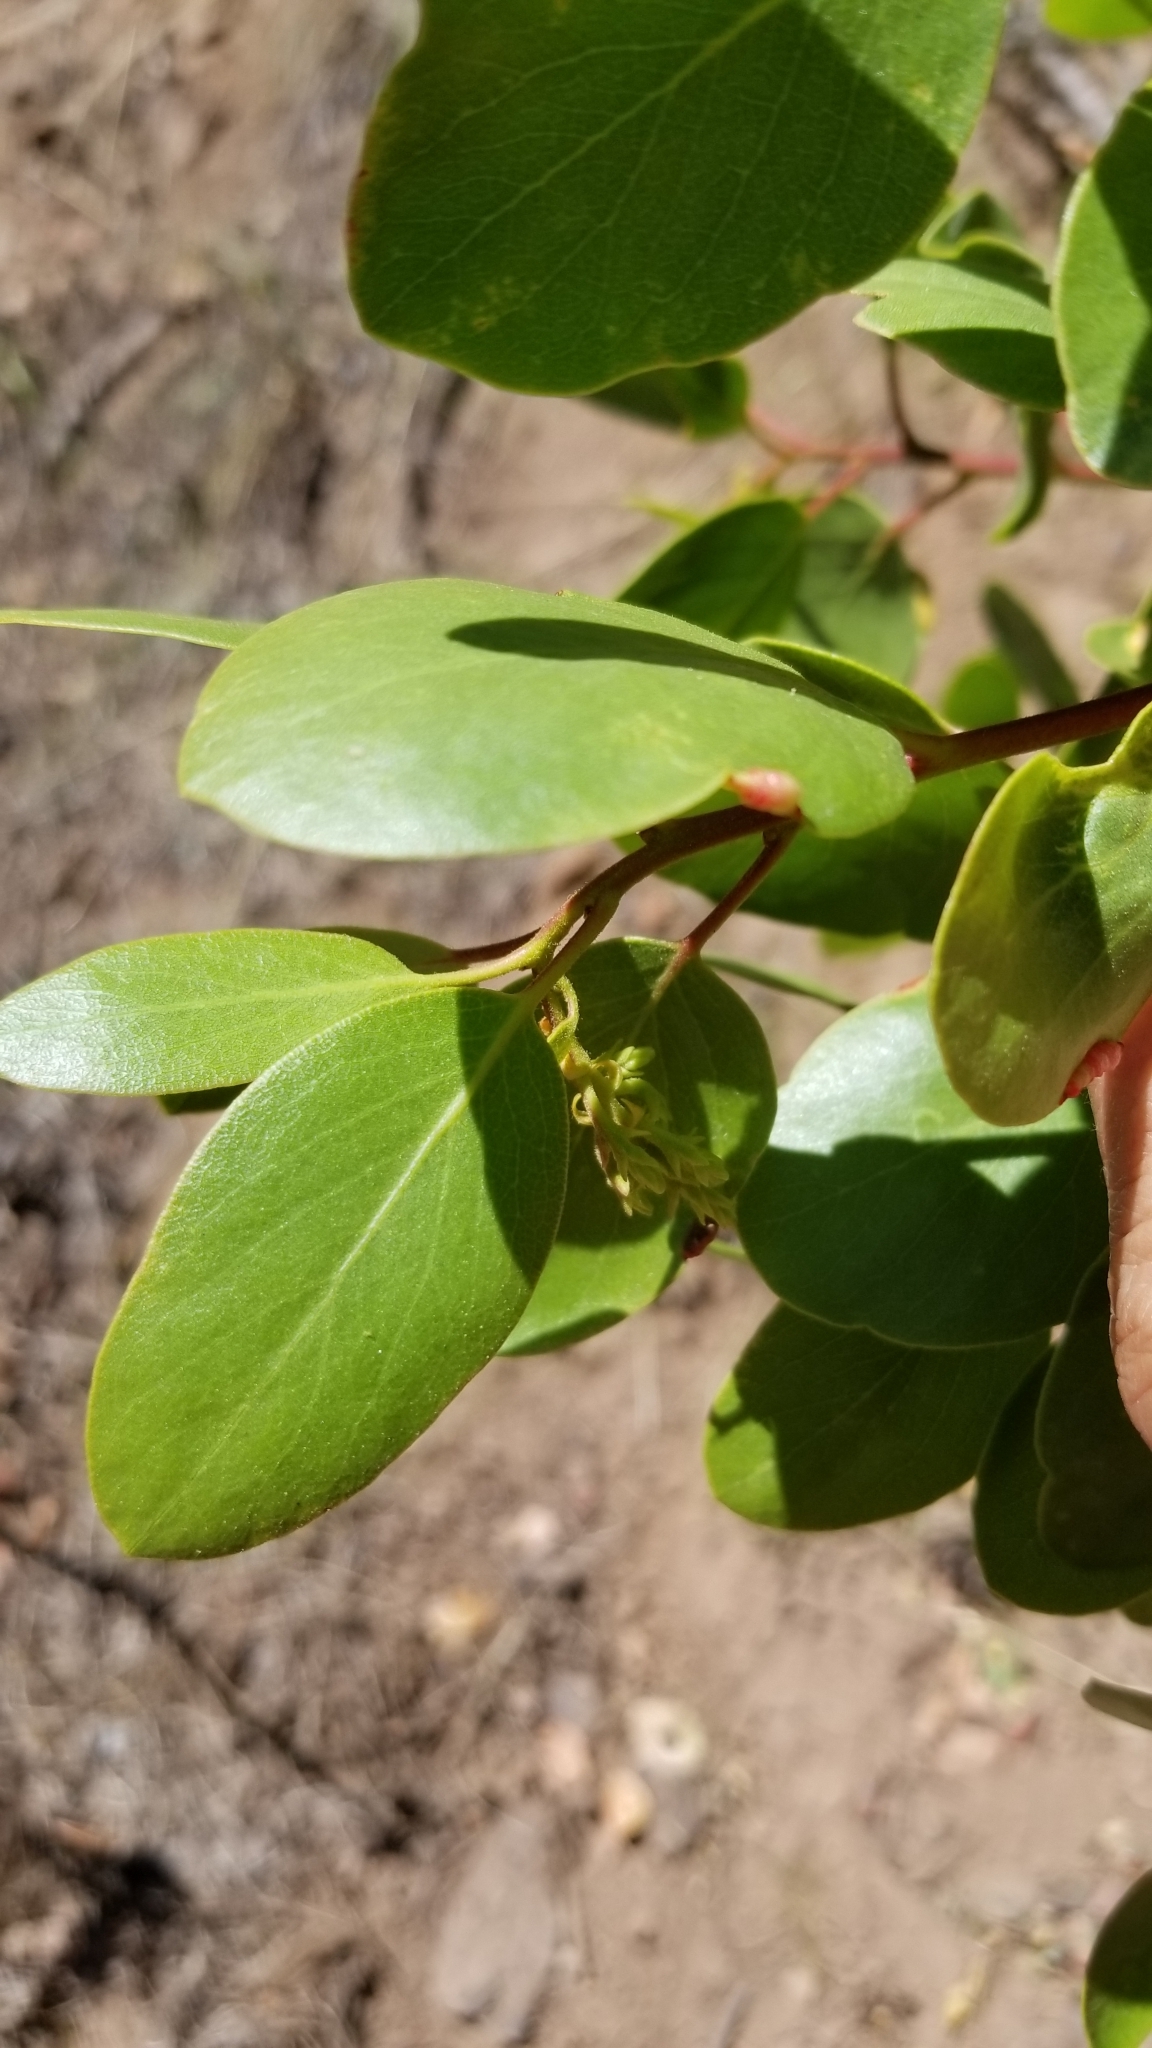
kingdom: Plantae
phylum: Tracheophyta
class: Magnoliopsida
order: Ericales
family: Ericaceae
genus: Arctostaphylos
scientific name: Arctostaphylos patula
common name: Green-leaf manzanita
